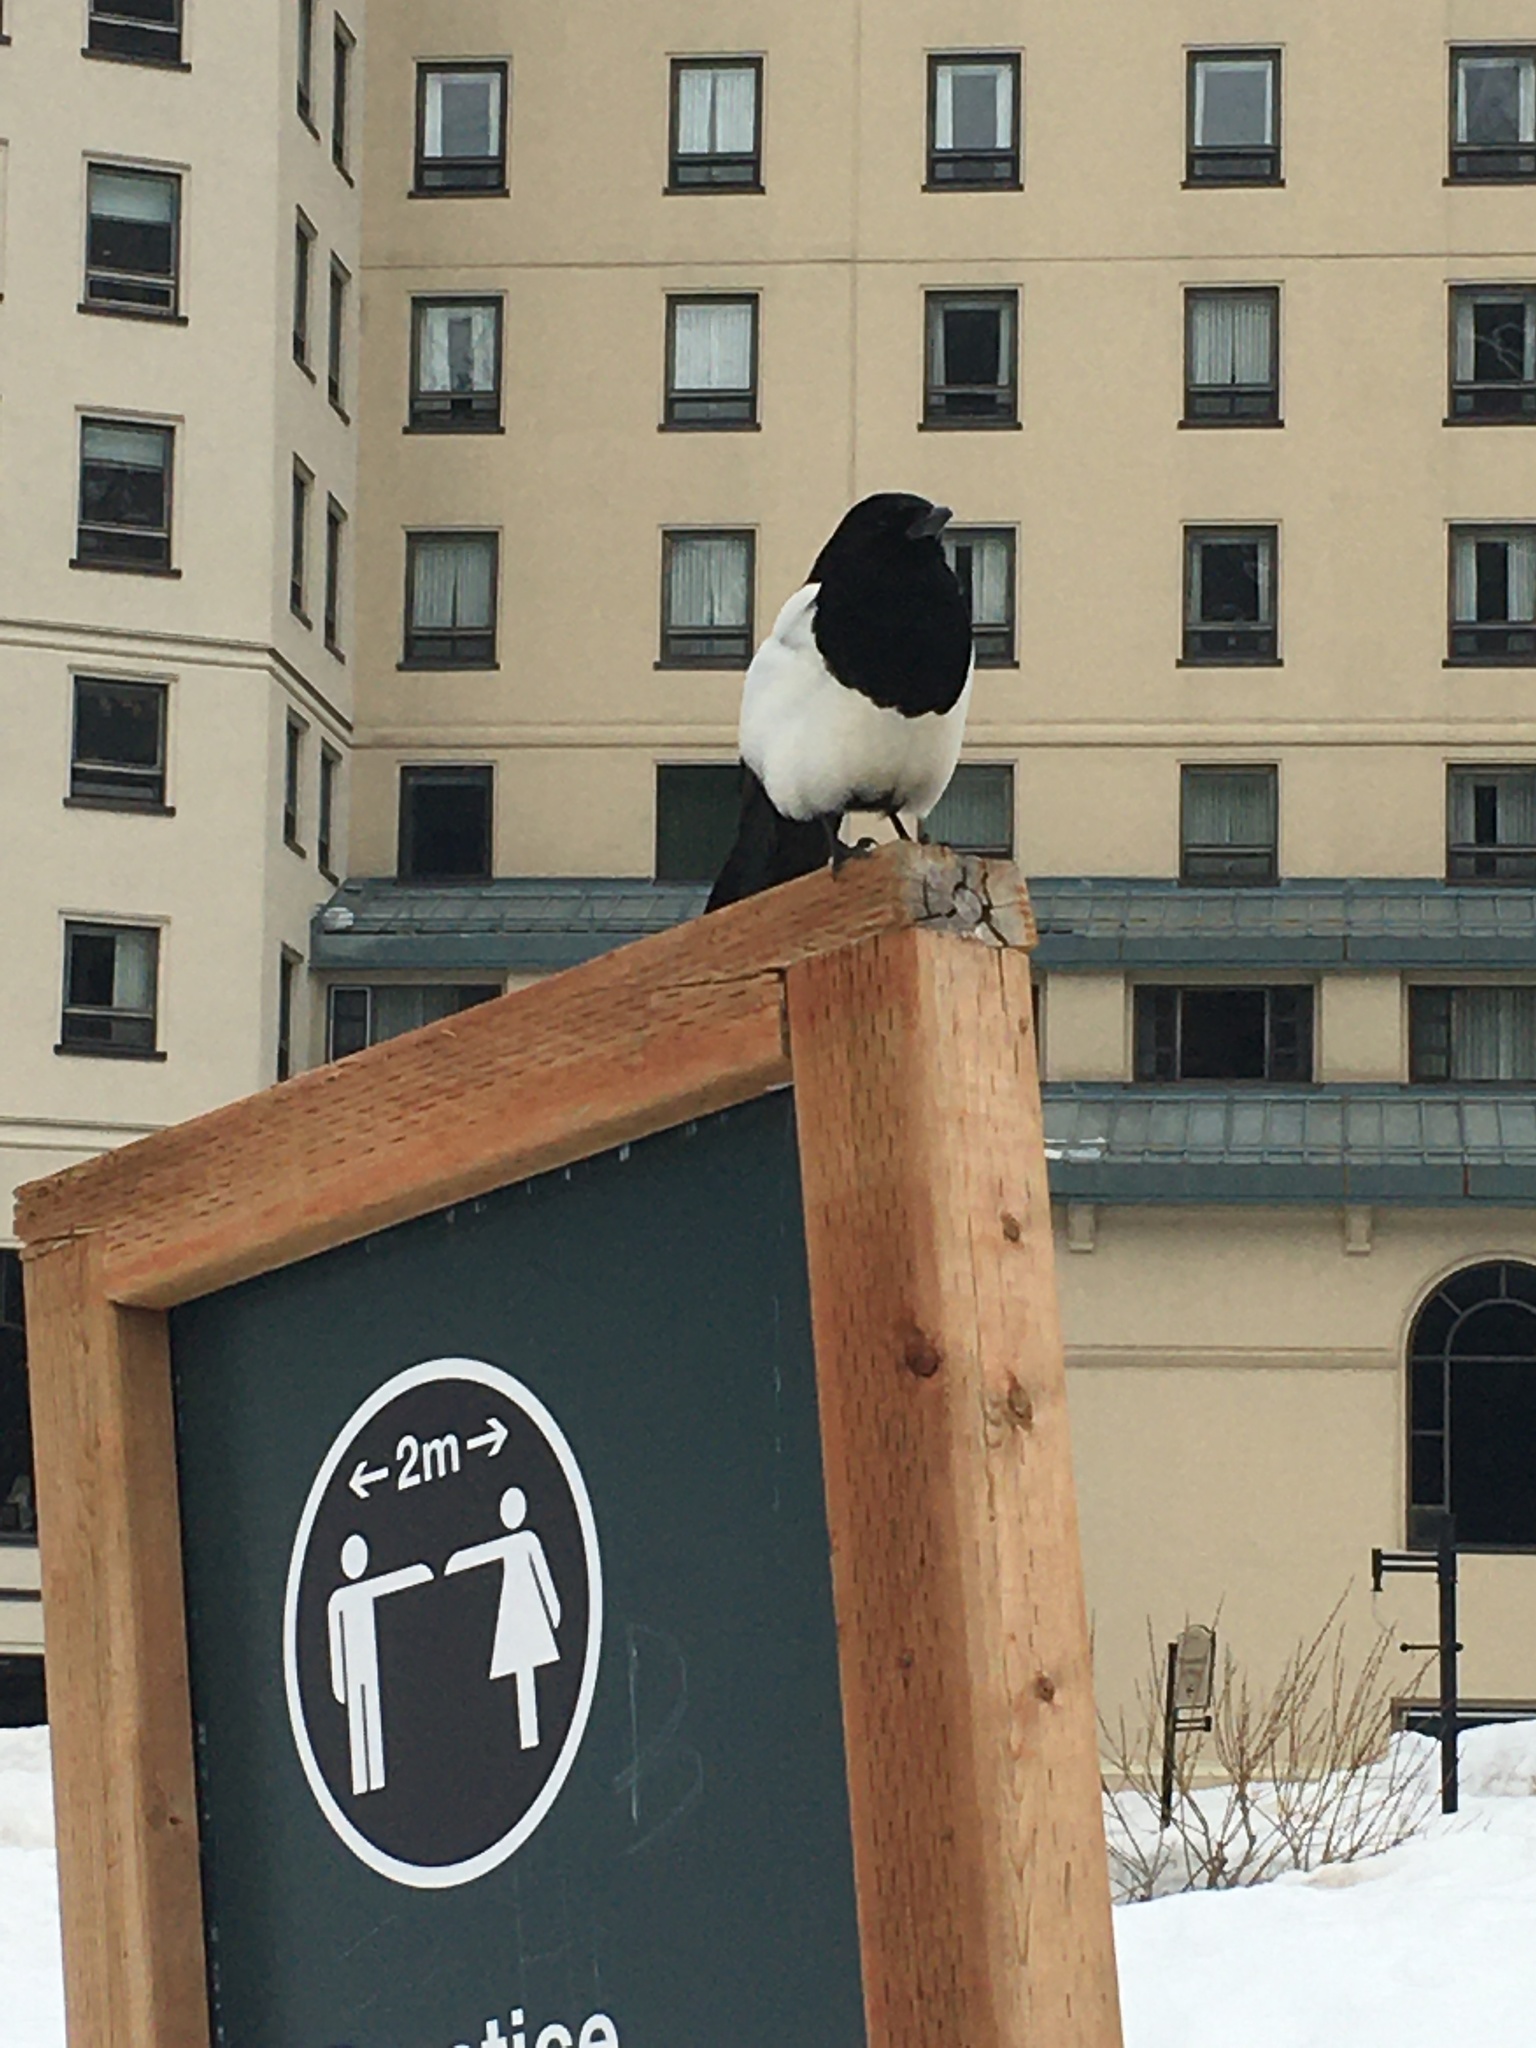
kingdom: Animalia
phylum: Chordata
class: Aves
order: Passeriformes
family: Corvidae
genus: Pica
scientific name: Pica hudsonia
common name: Black-billed magpie
